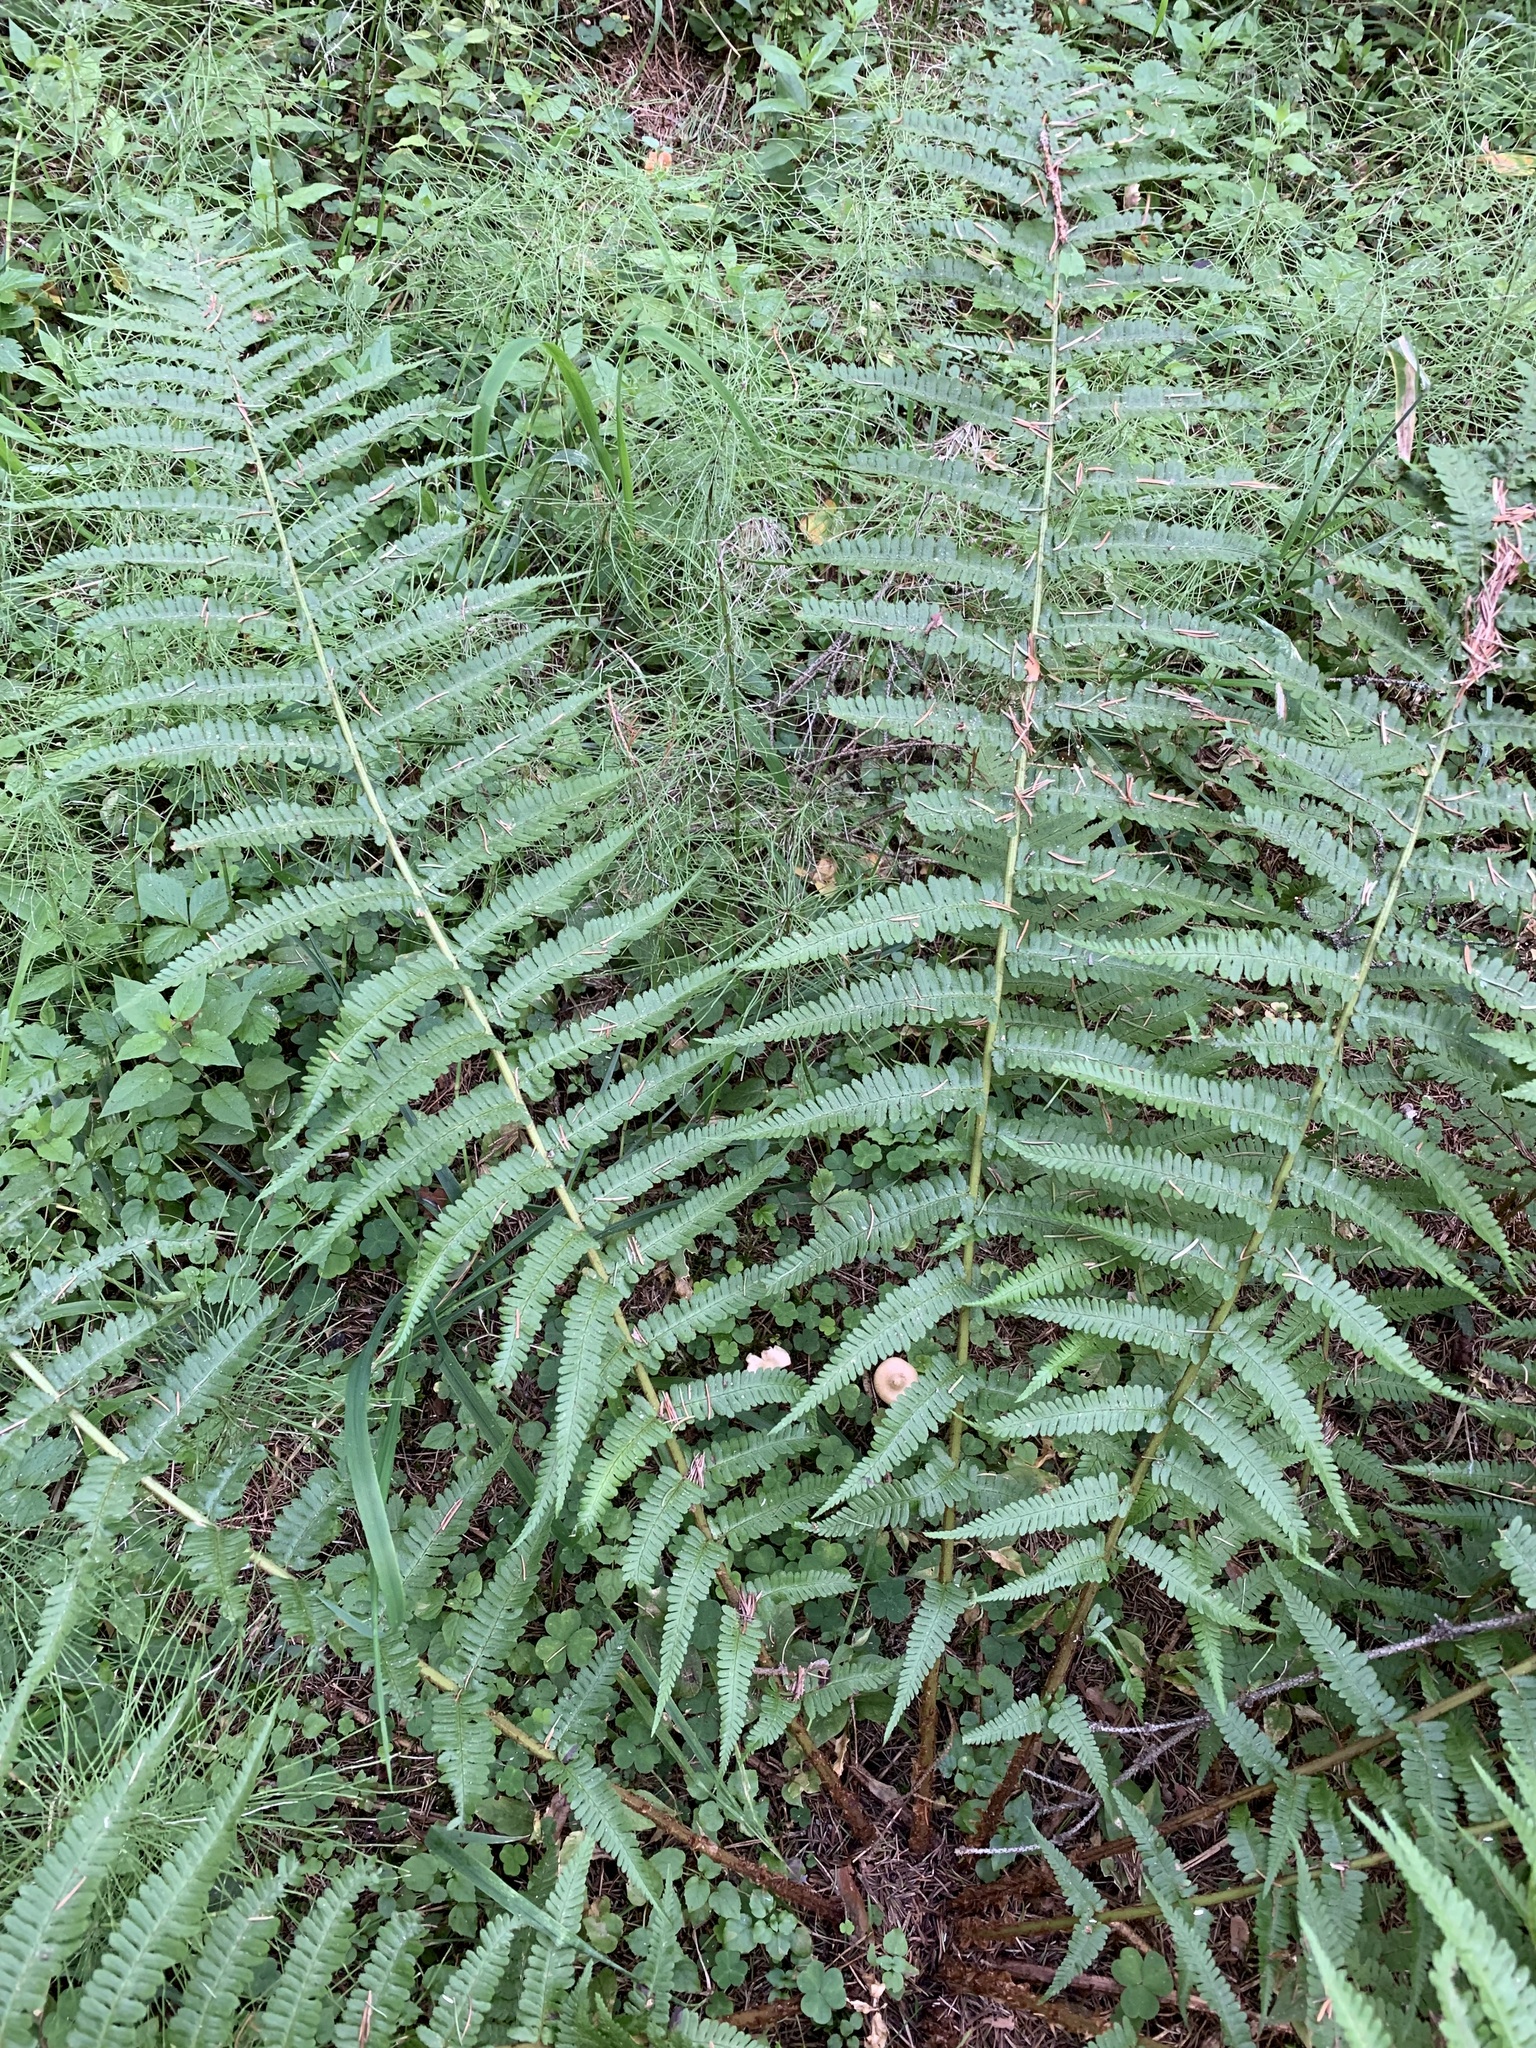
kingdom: Plantae
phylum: Tracheophyta
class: Polypodiopsida
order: Polypodiales
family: Dryopteridaceae
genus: Dryopteris
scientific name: Dryopteris filix-mas
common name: Male fern
